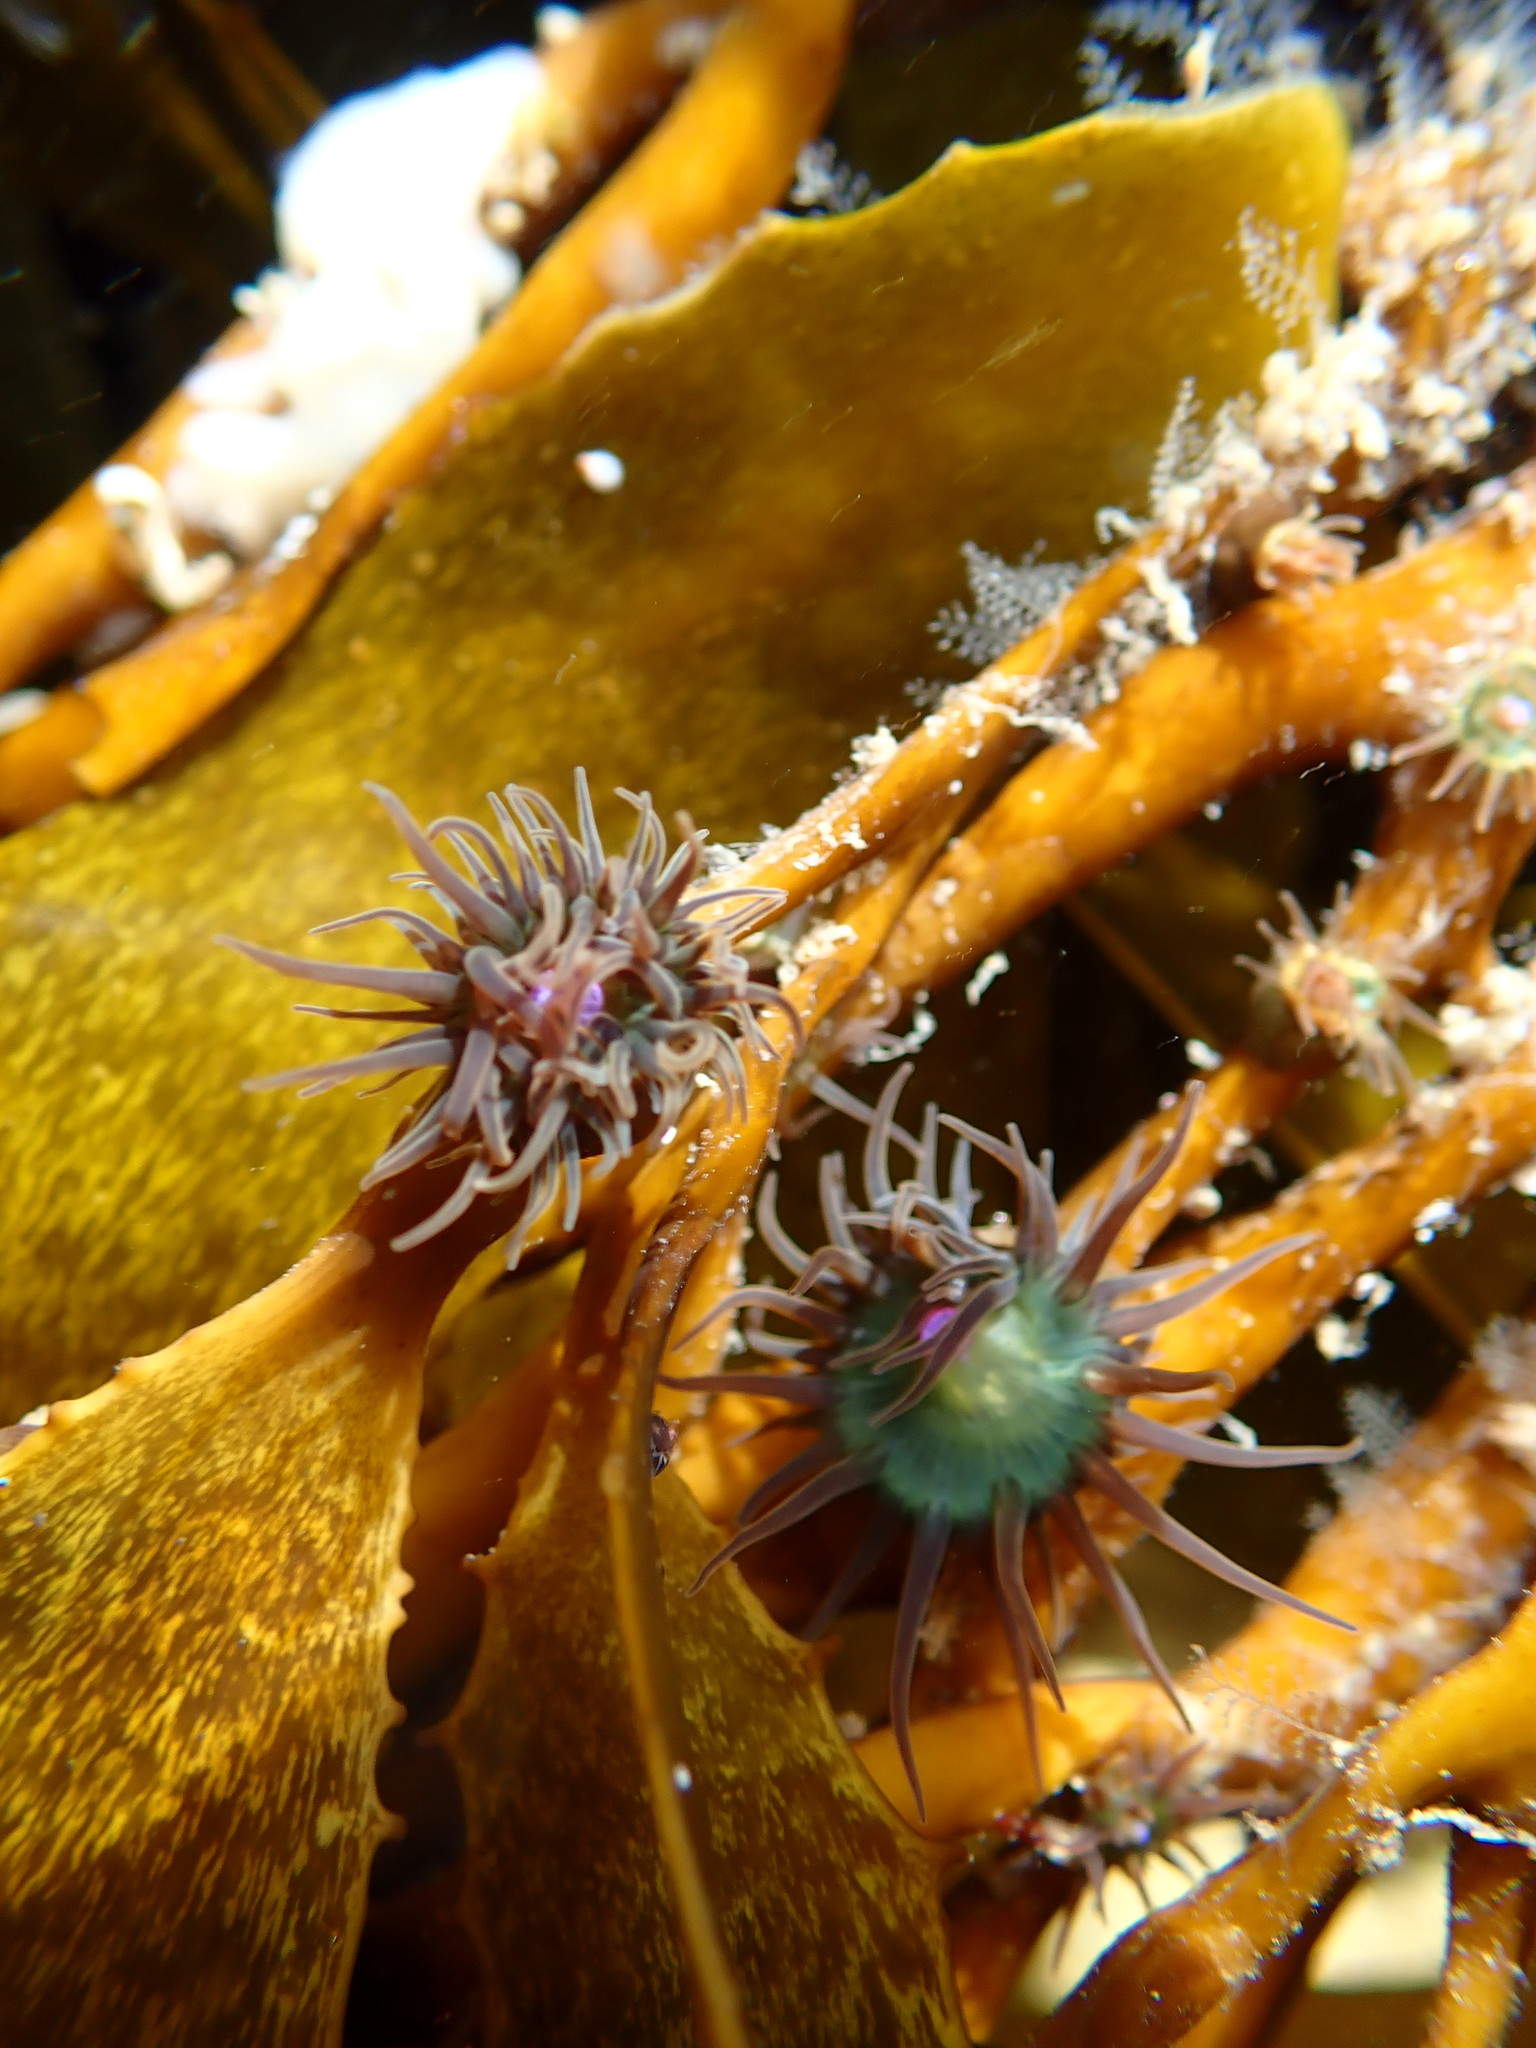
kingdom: Animalia
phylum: Cnidaria
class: Anthozoa
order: Actiniaria
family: Hormathiidae
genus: Handactis
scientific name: Handactis nutrix
